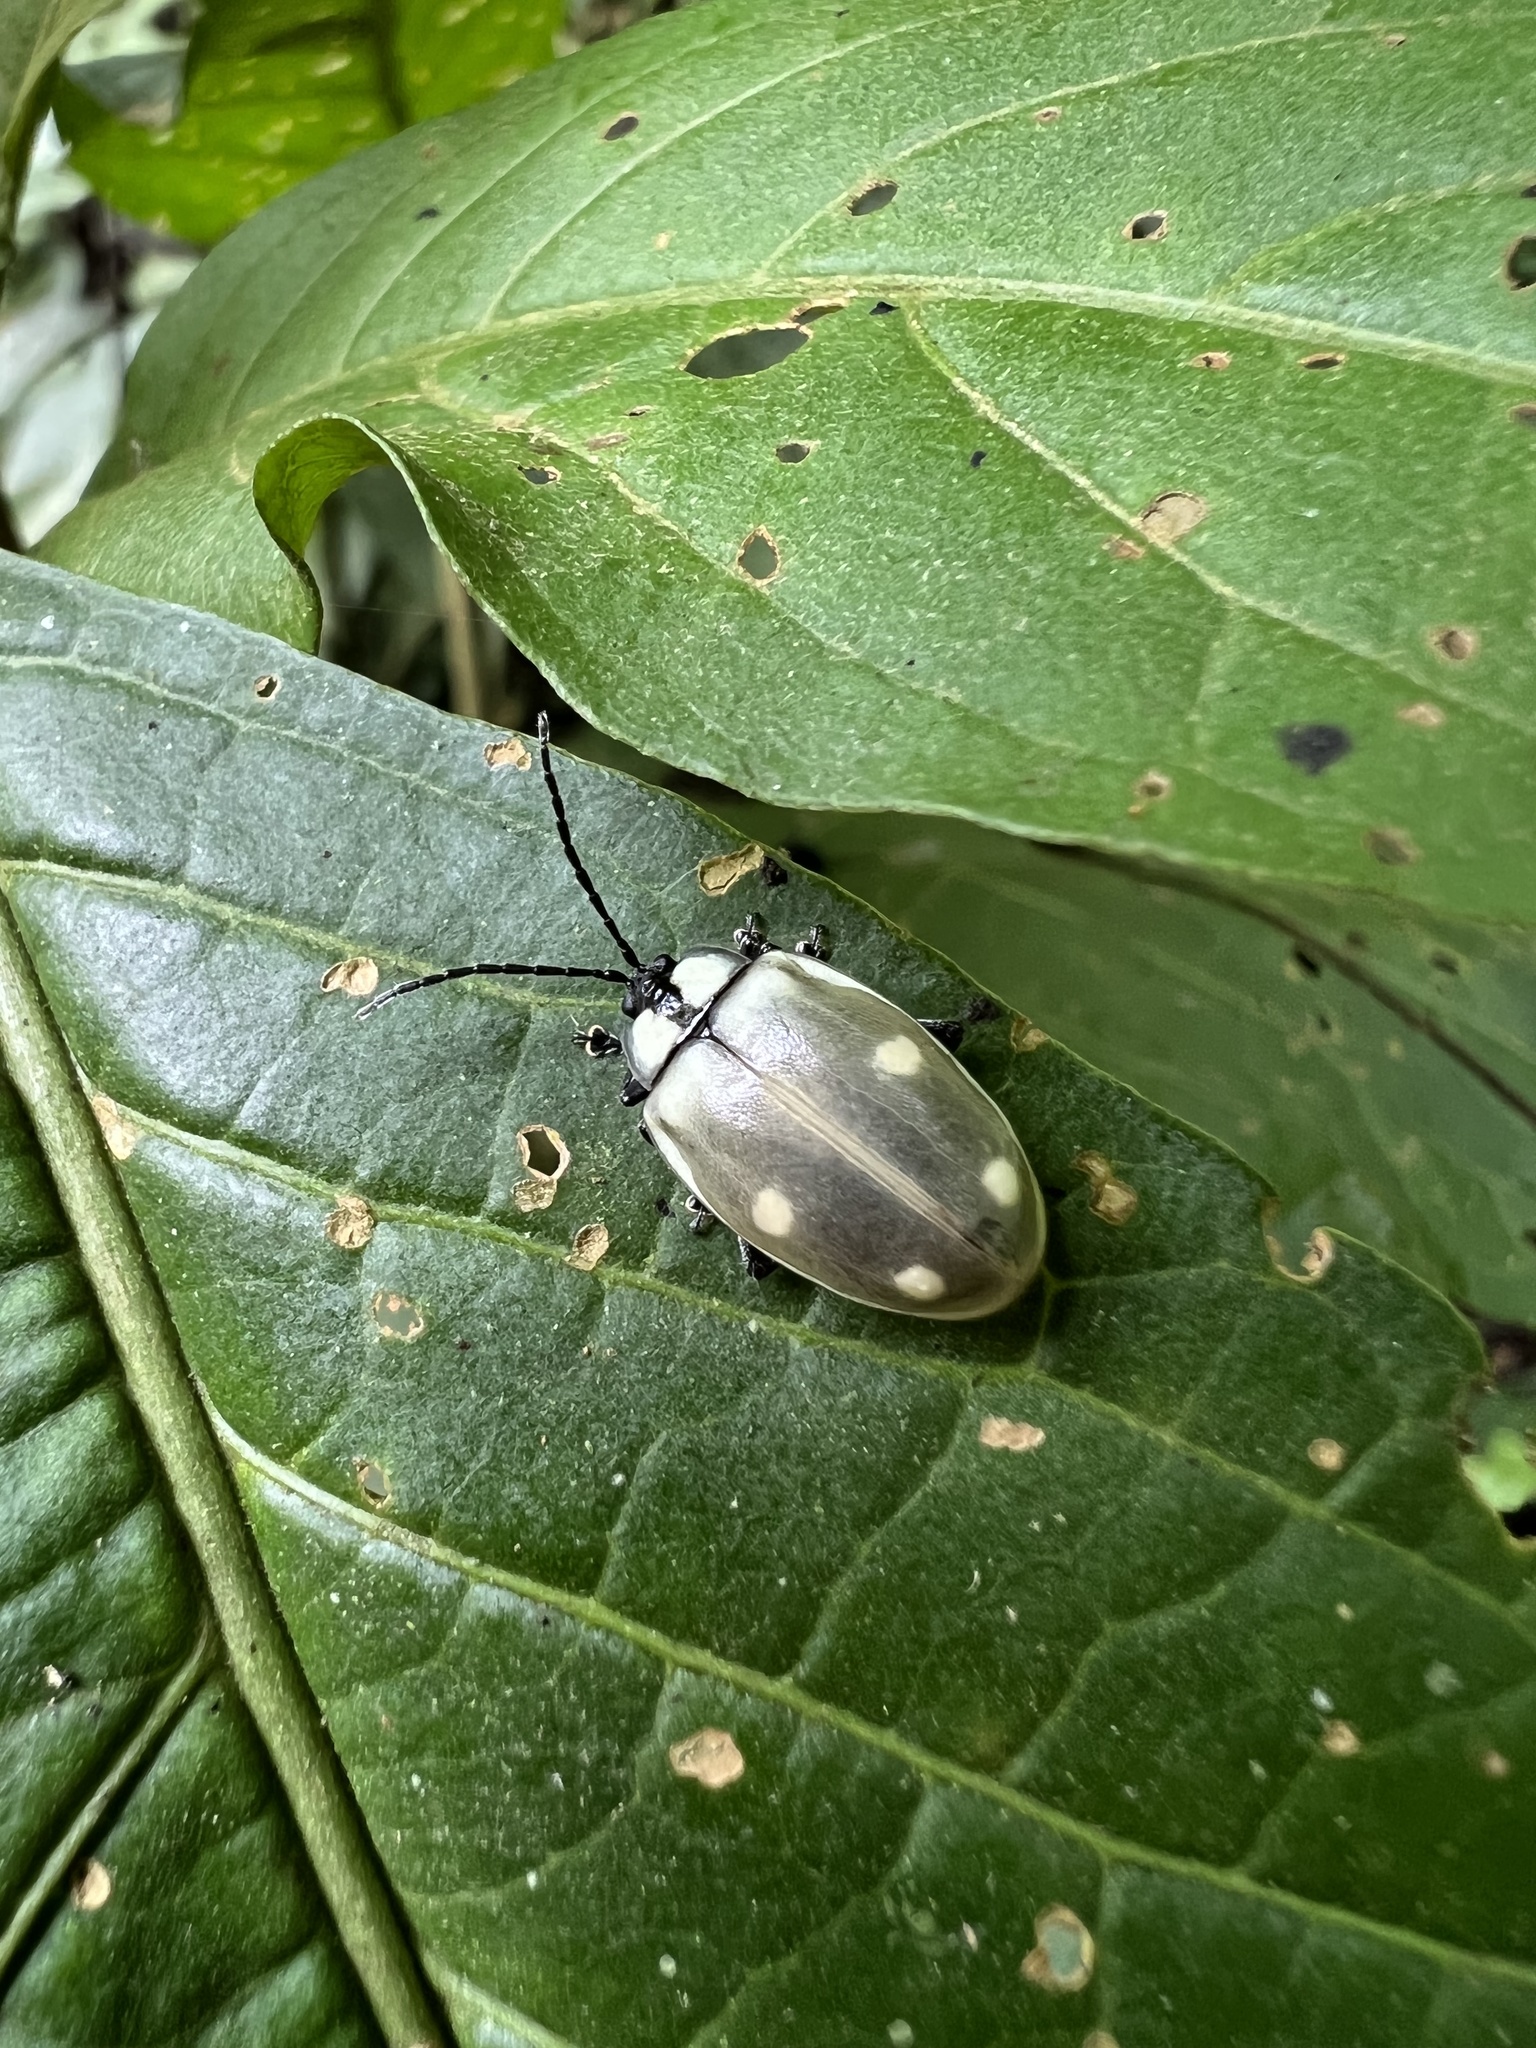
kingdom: Animalia
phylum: Arthropoda
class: Insecta
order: Coleoptera
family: Chrysomelidae
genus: Aspicela
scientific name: Aspicela
